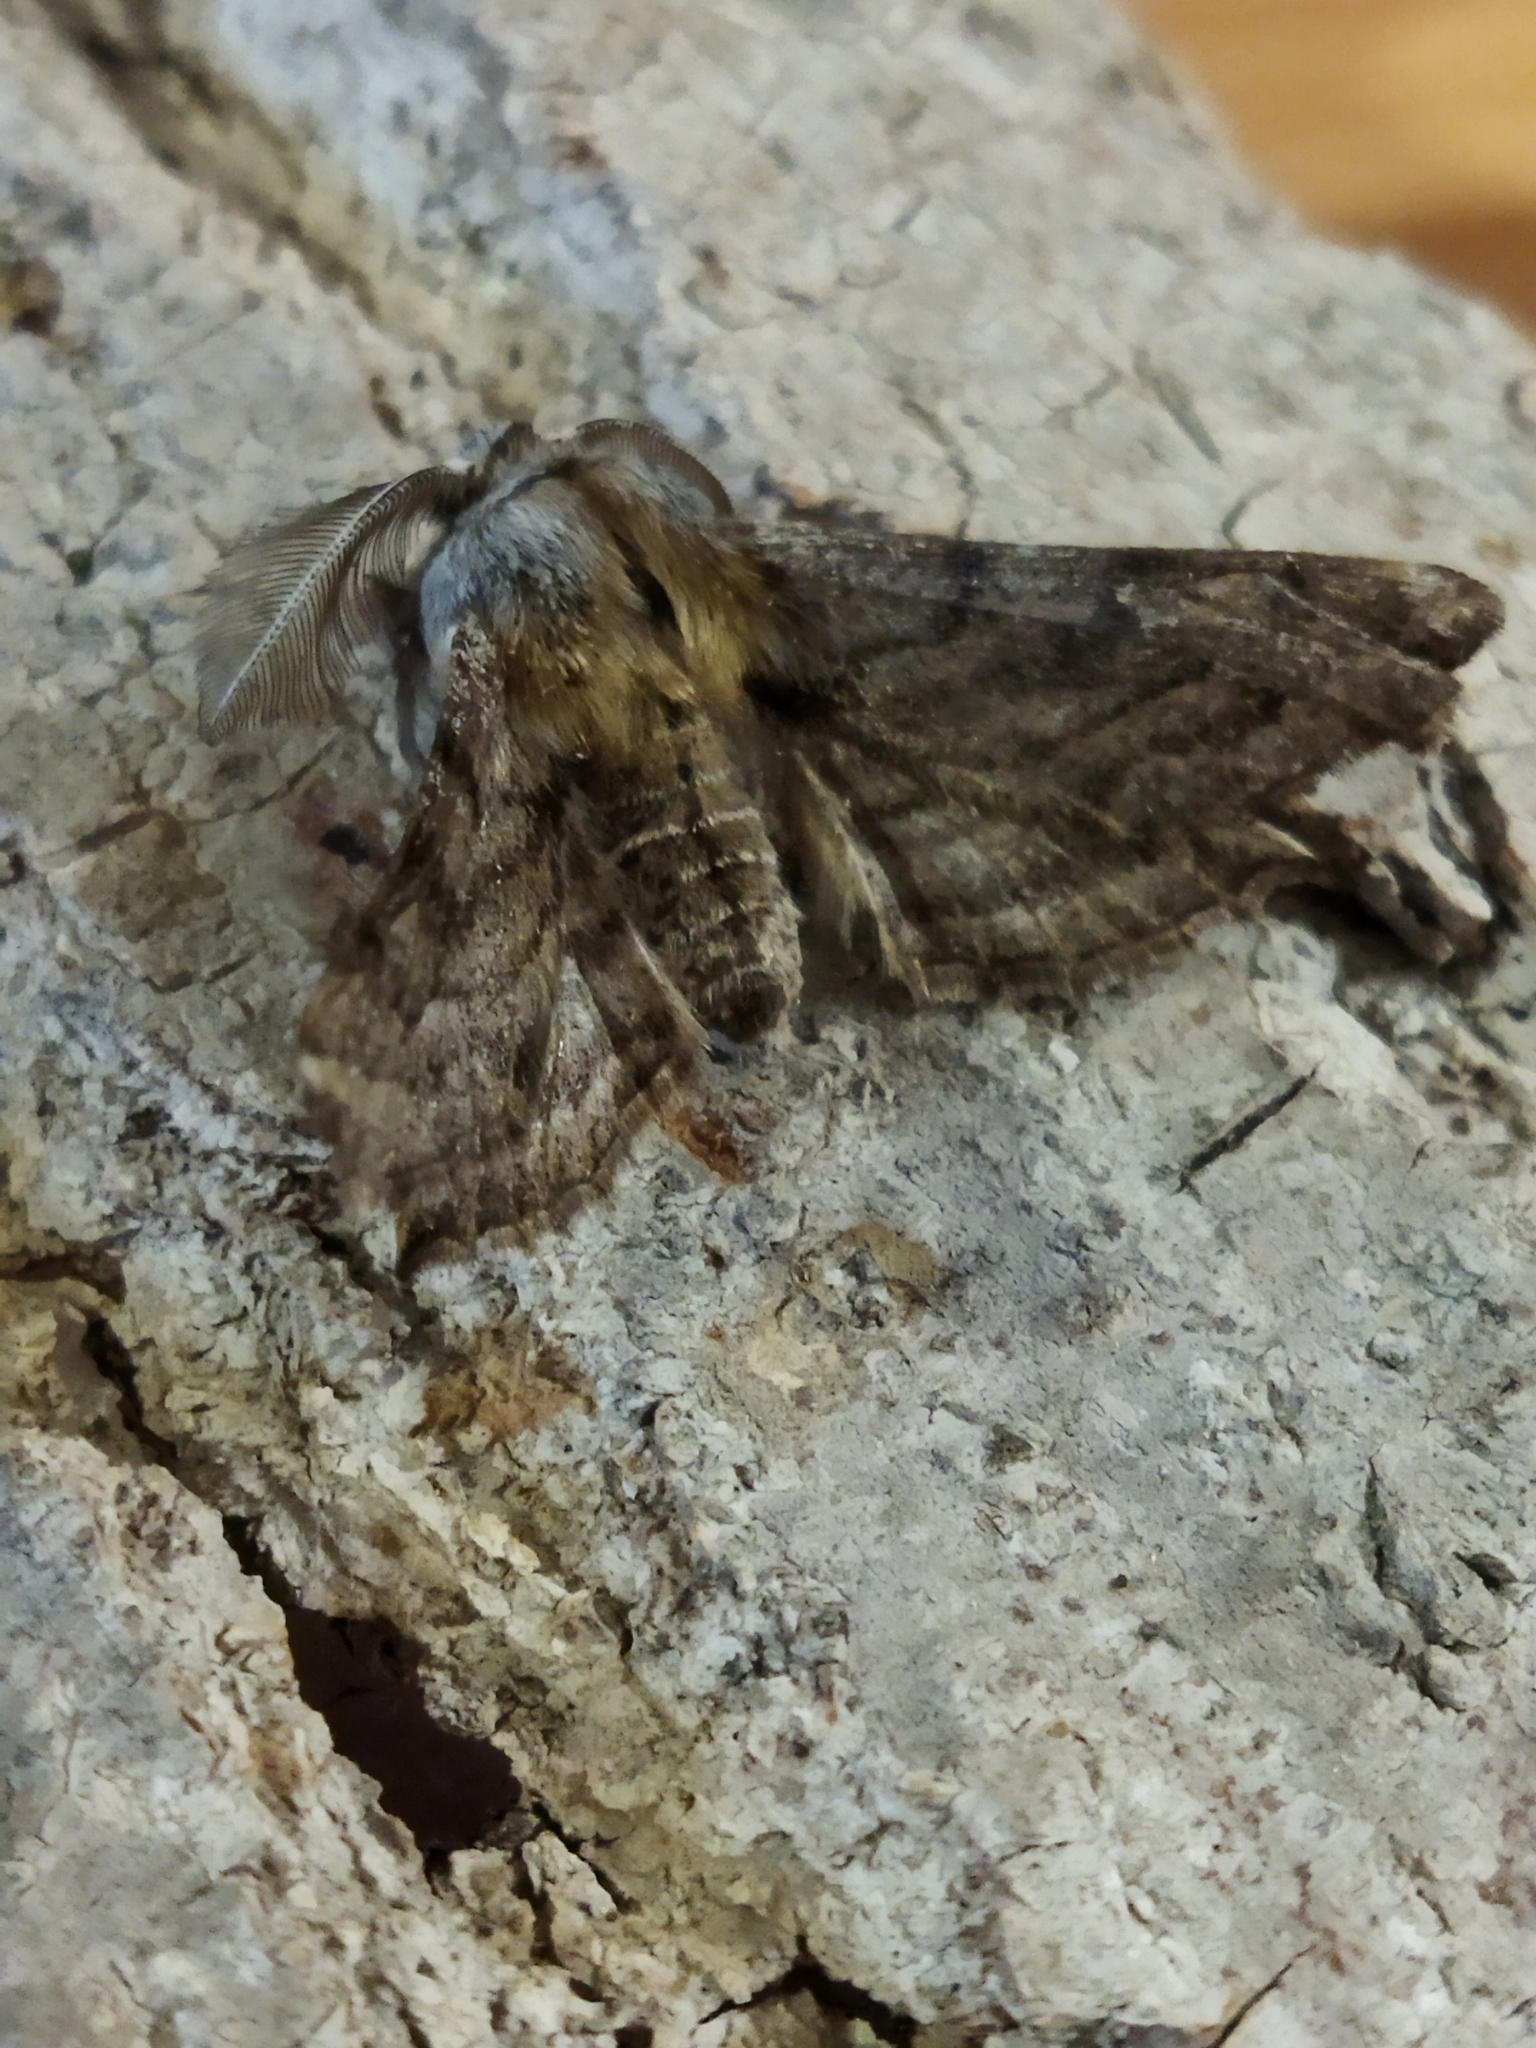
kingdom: Animalia
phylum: Arthropoda
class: Insecta
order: Lepidoptera
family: Geometridae
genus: Apochima
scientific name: Apochima flabellaria
